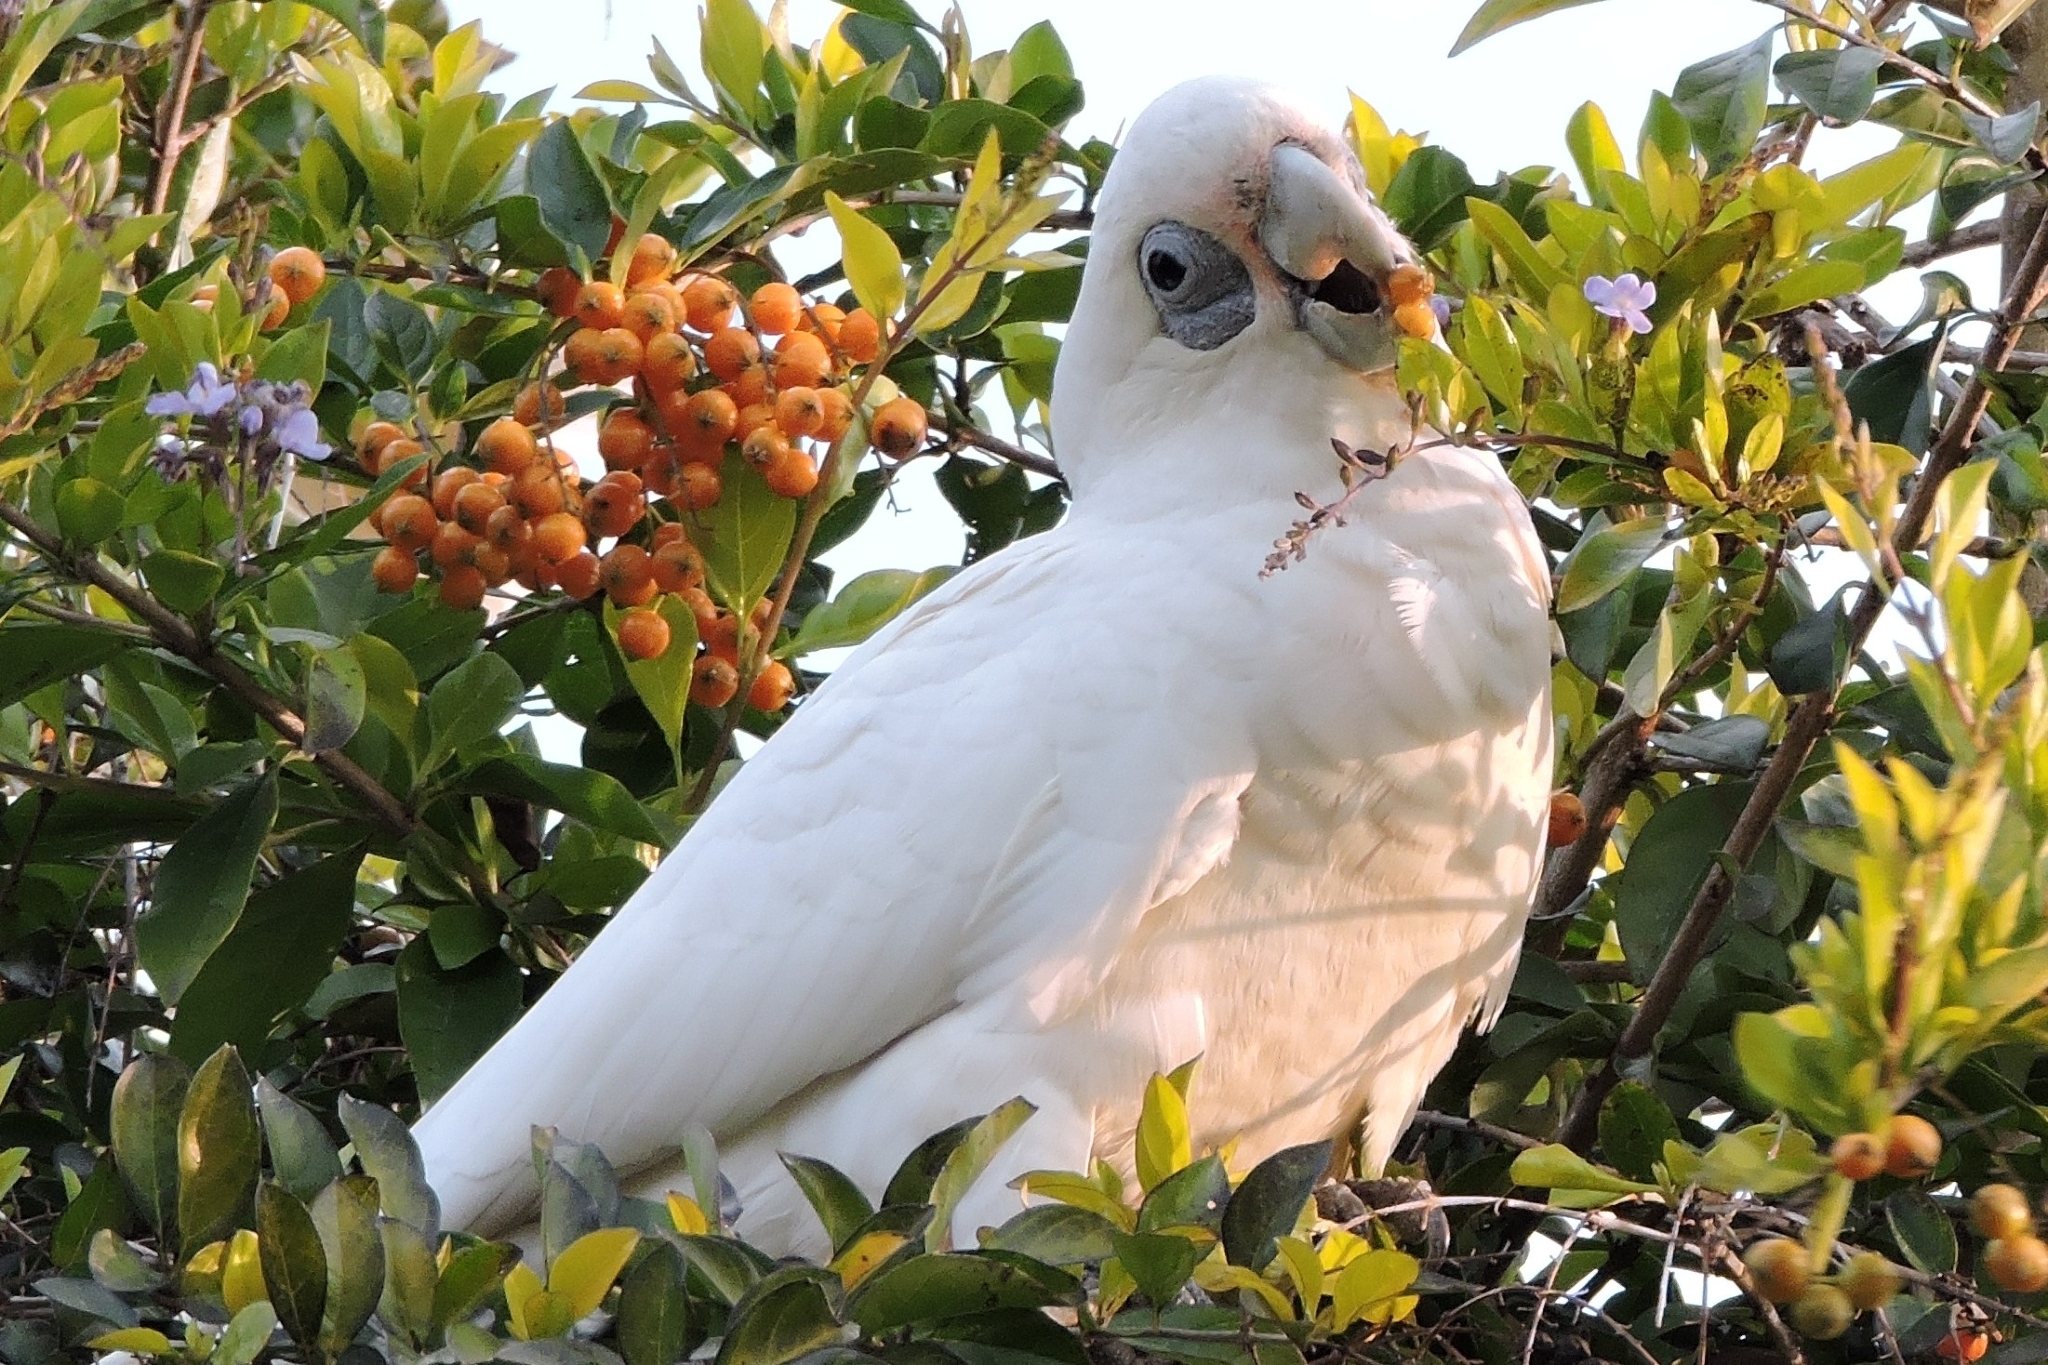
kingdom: Animalia
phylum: Chordata
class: Aves
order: Psittaciformes
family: Psittacidae
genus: Cacatua
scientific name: Cacatua sanguinea
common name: Little corella
